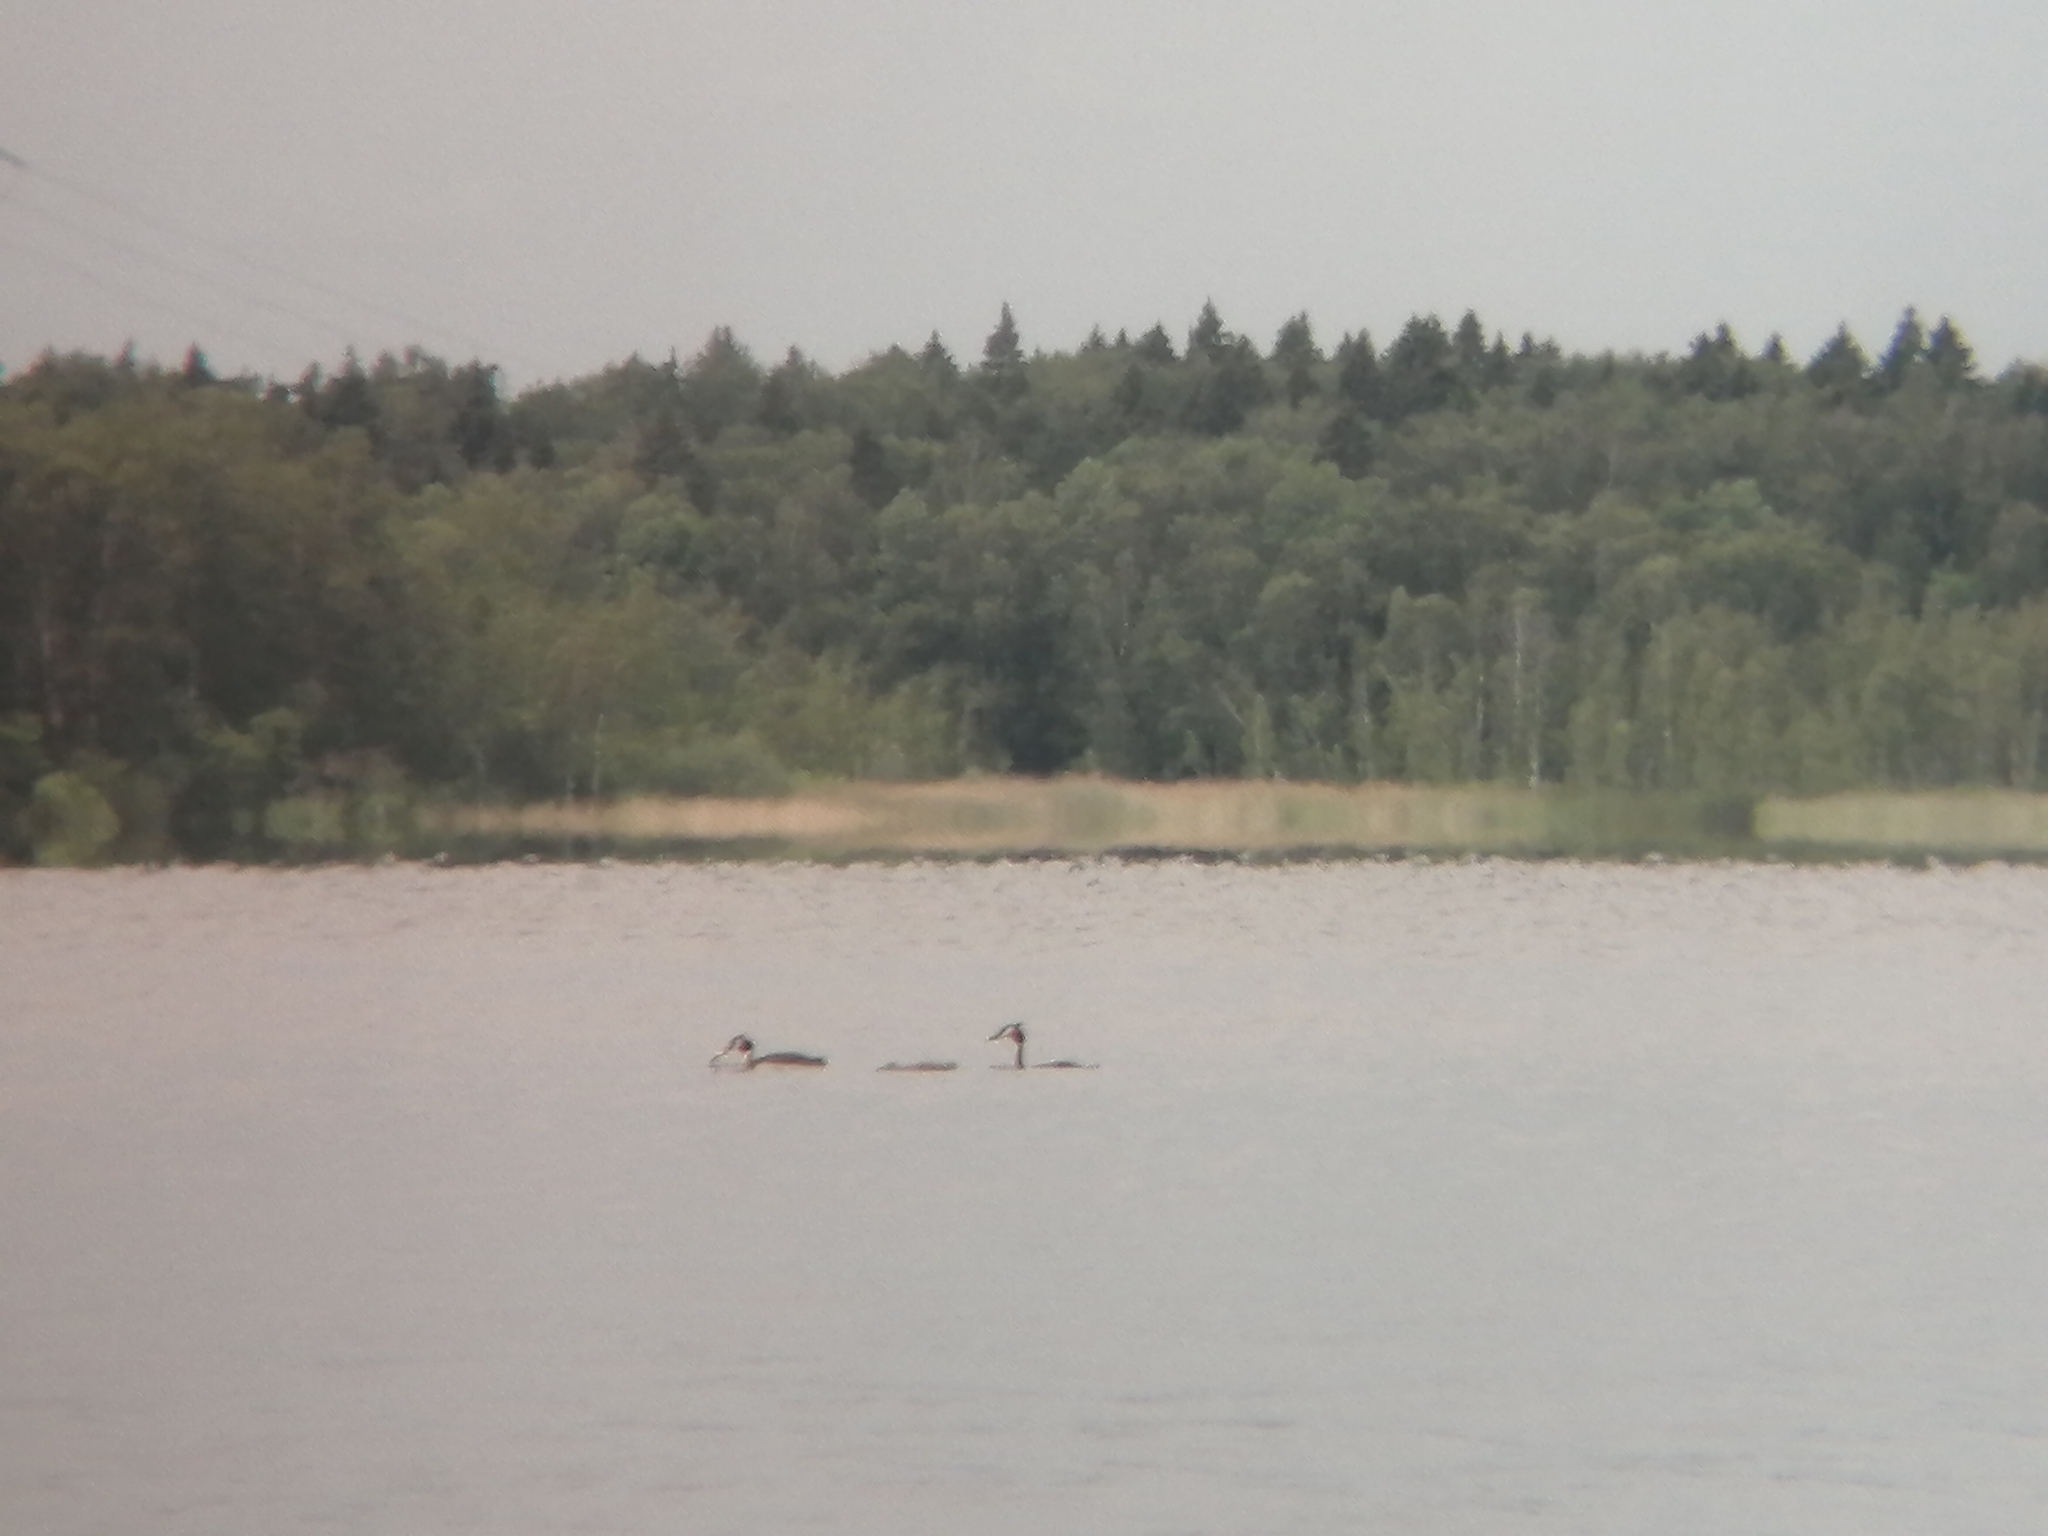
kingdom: Animalia
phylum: Chordata
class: Aves
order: Podicipediformes
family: Podicipedidae
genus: Podiceps
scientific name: Podiceps cristatus
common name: Great crested grebe
